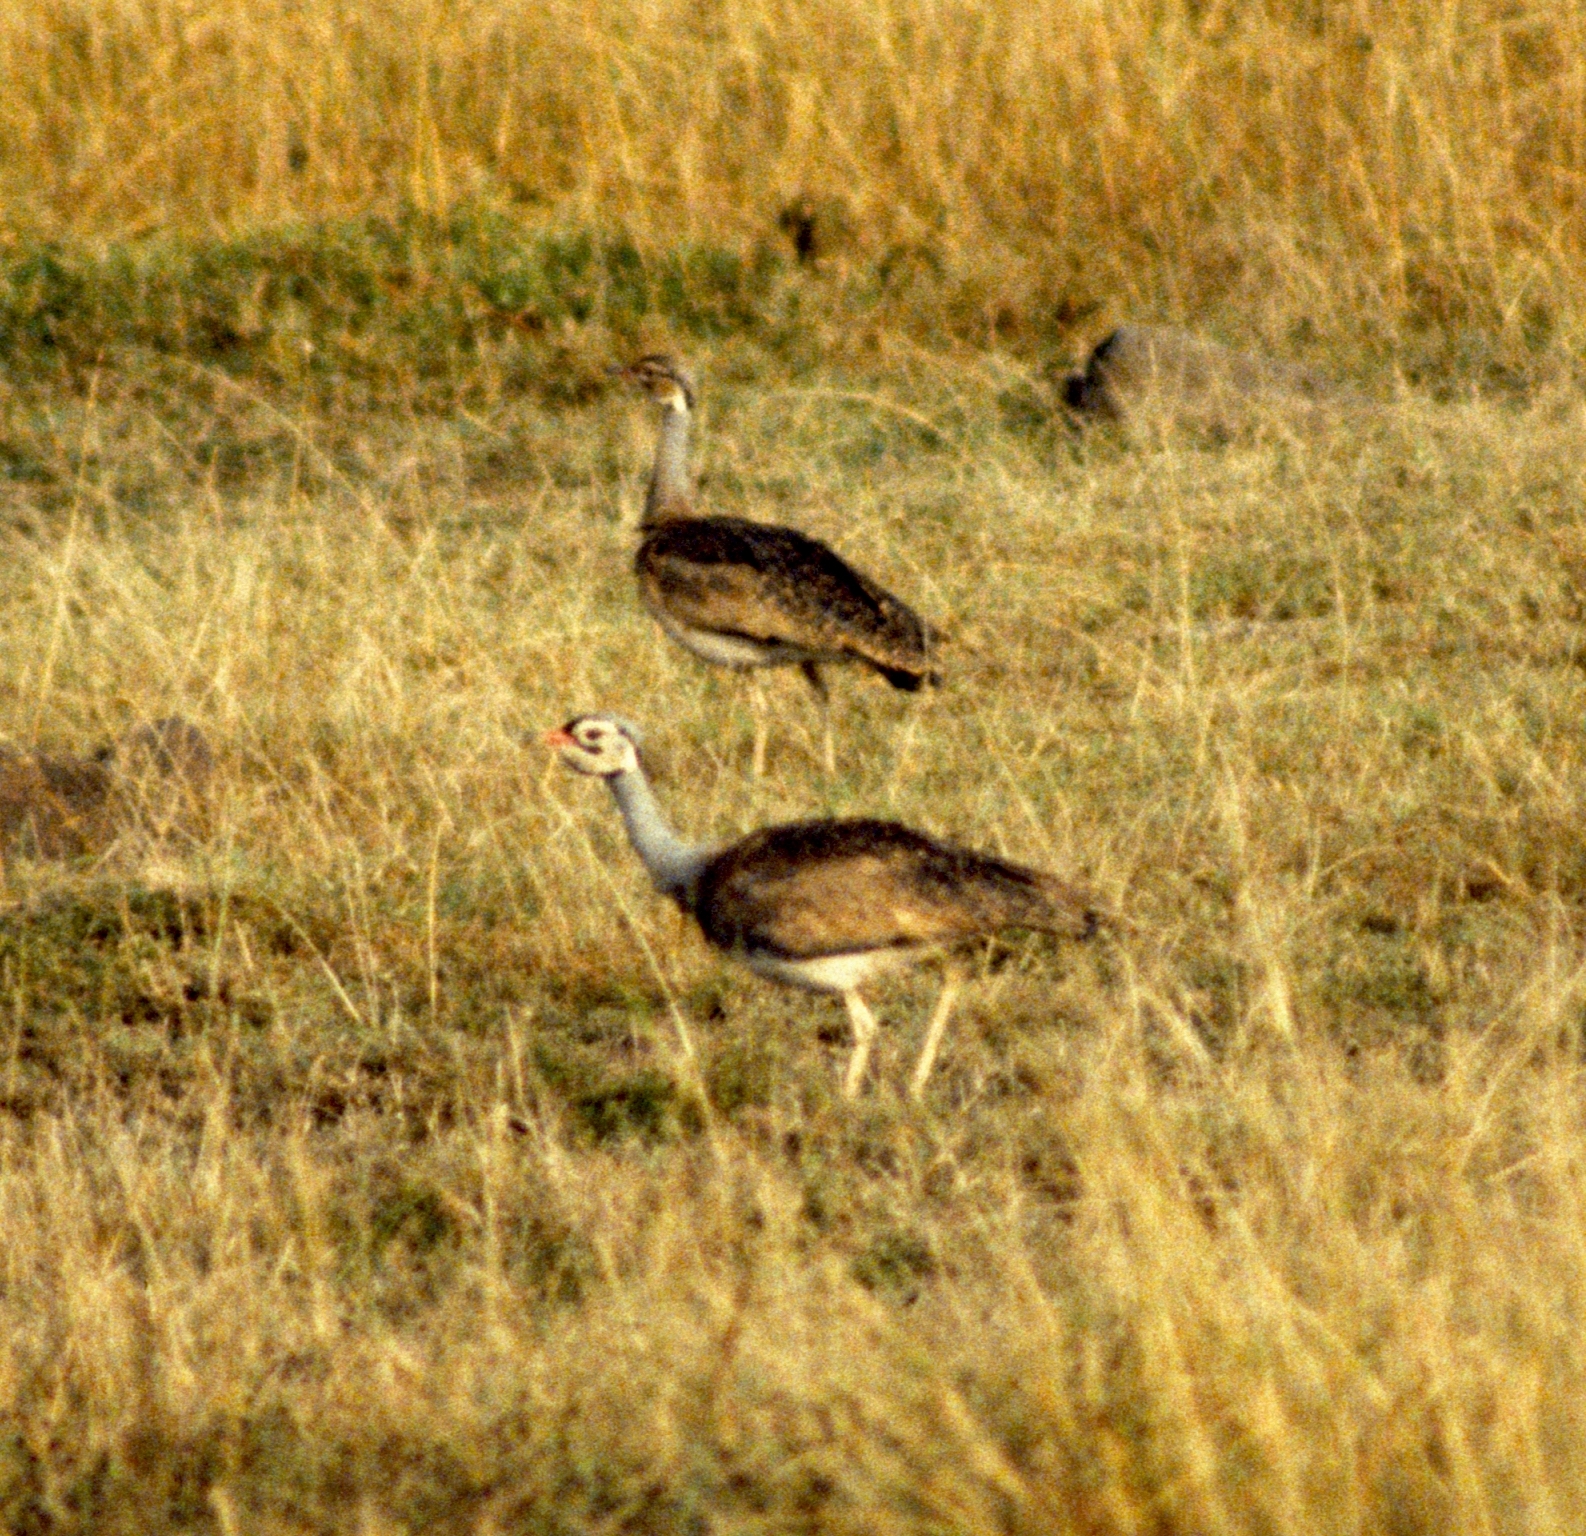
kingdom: Animalia
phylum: Chordata
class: Aves
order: Otidiformes
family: Otididae
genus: Eupodotis
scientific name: Eupodotis senegalensis
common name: White-bellied bustard
